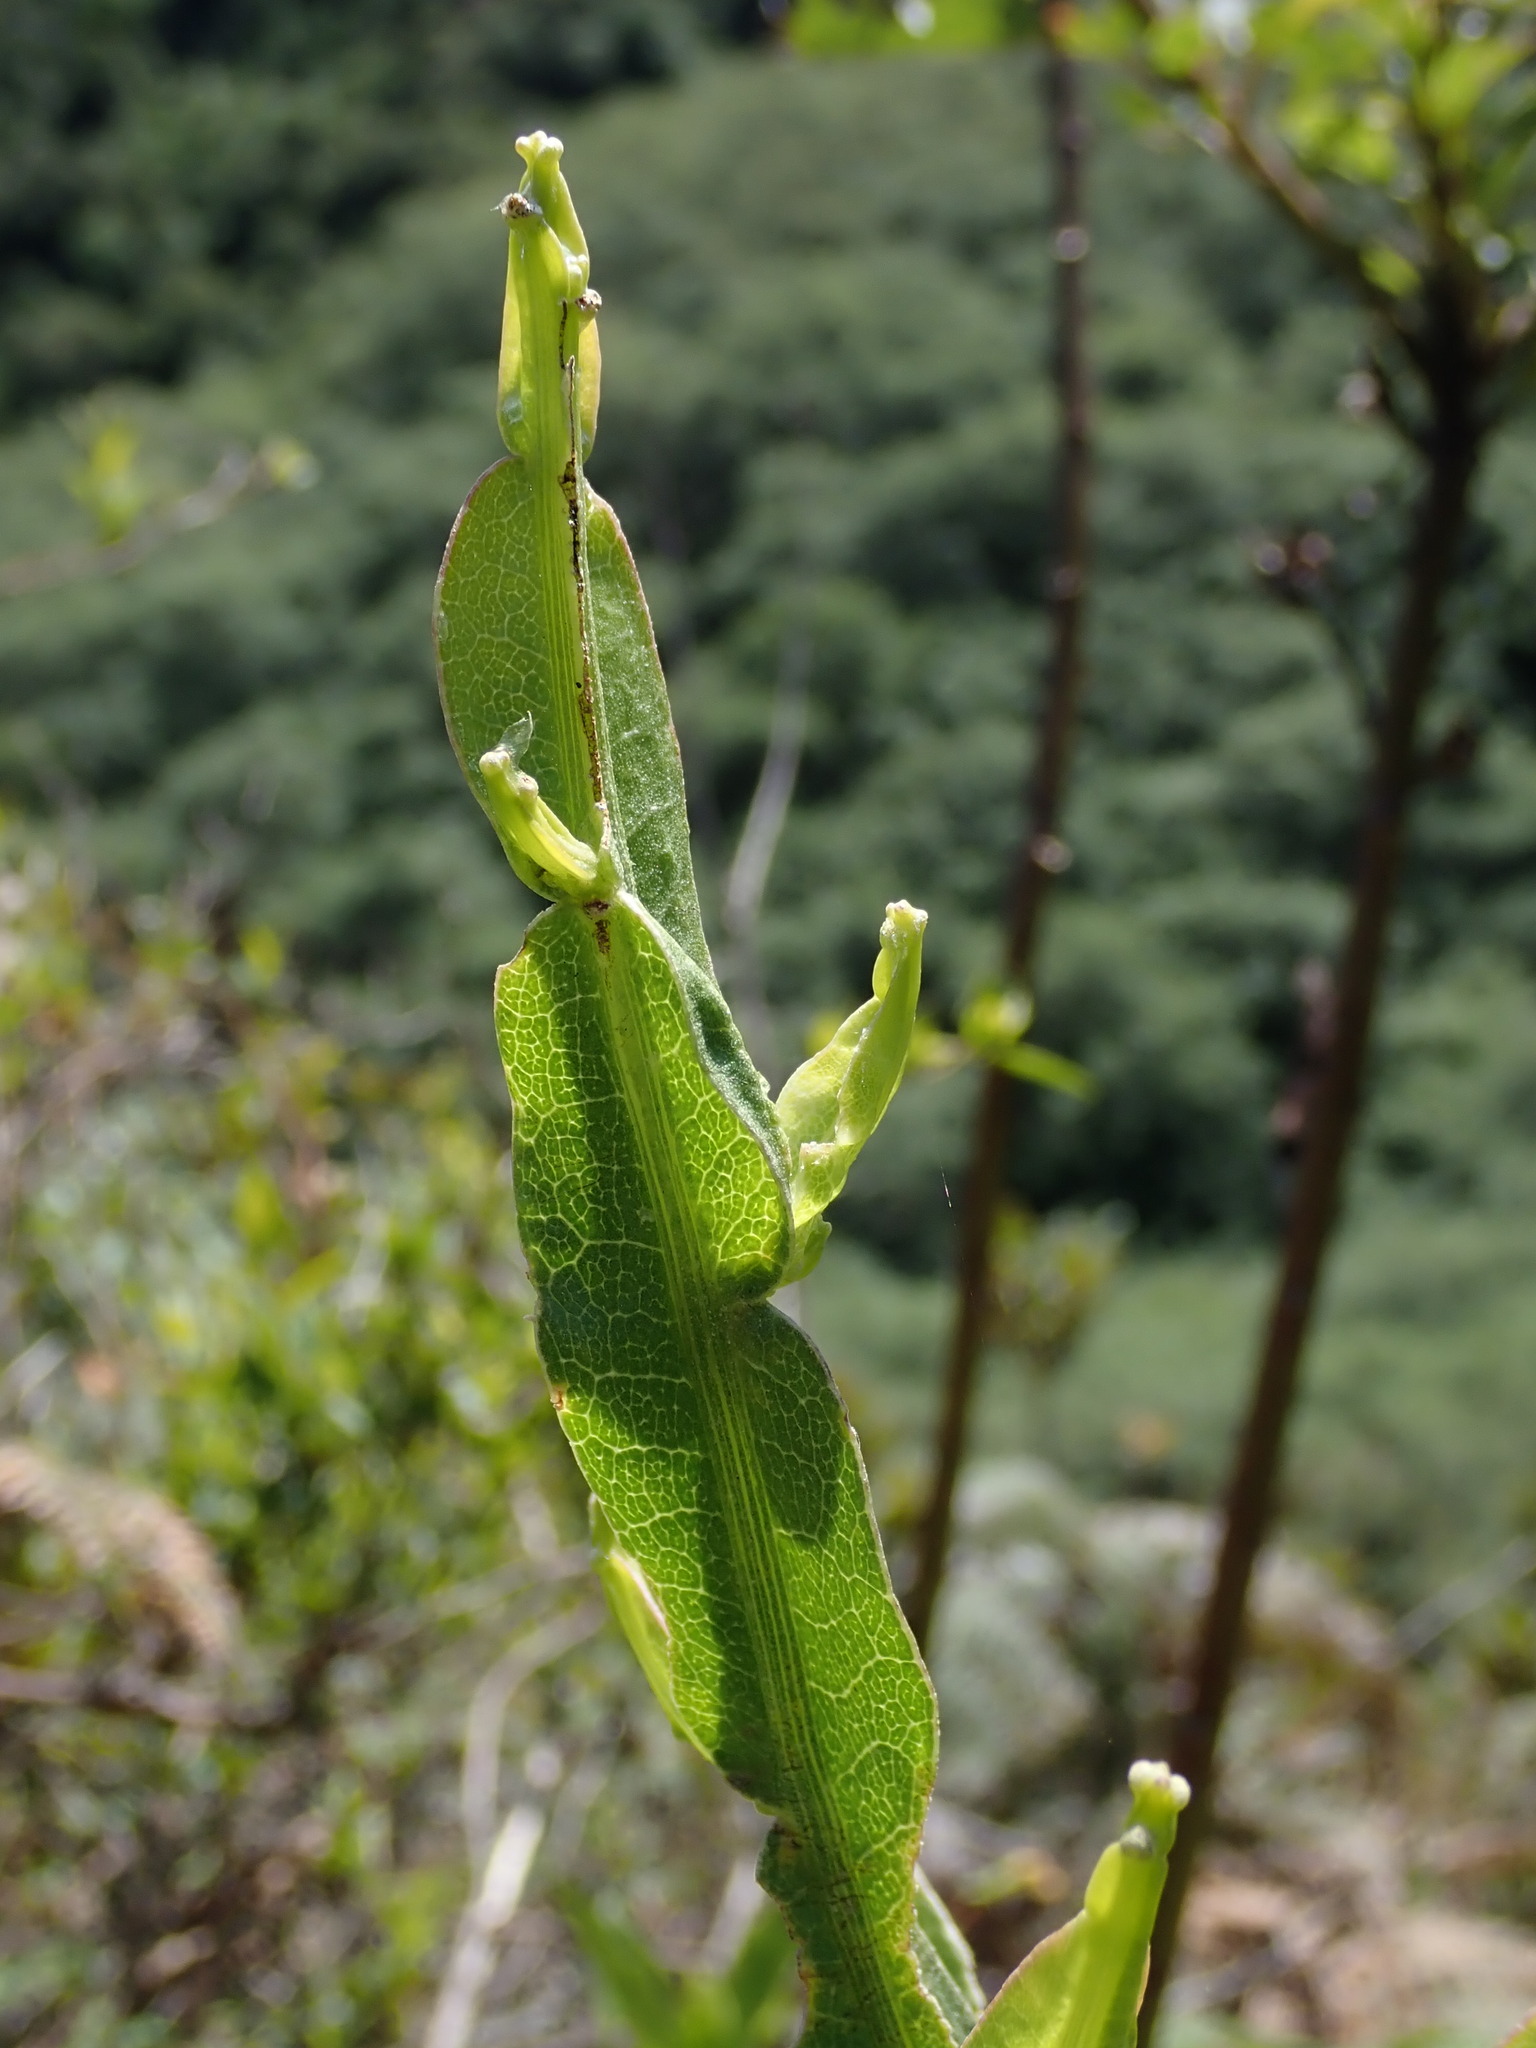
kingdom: Plantae
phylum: Tracheophyta
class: Magnoliopsida
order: Asterales
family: Asteraceae
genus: Baccharis
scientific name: Baccharis genistelloides
